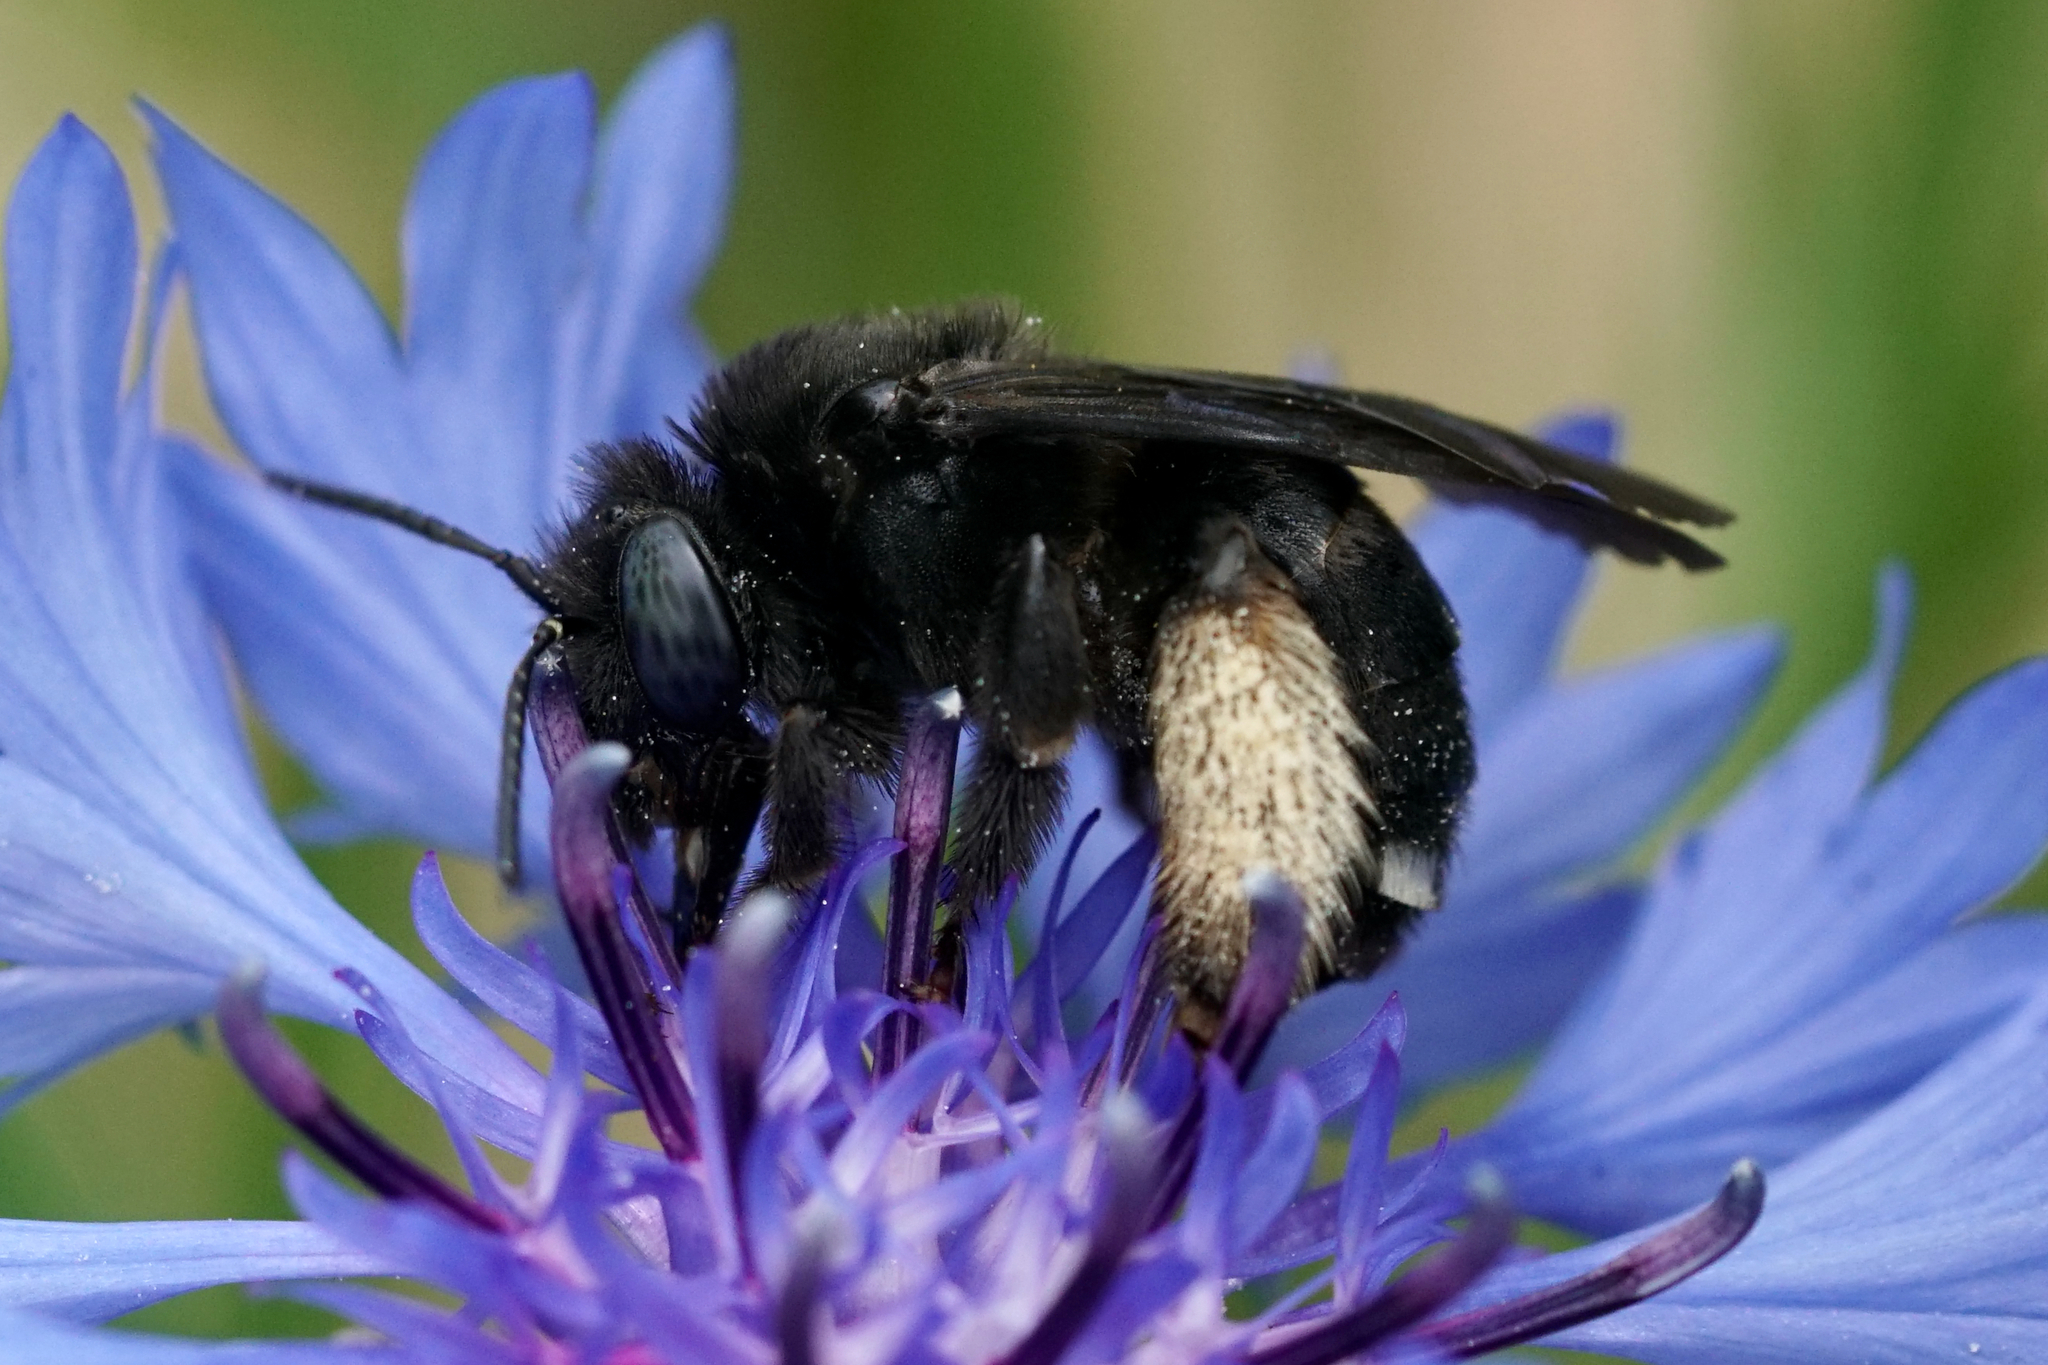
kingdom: Animalia
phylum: Arthropoda
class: Insecta
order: Hymenoptera
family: Apidae
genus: Melissodes
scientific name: Melissodes bimaculatus
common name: Two-spotted long-horned bee
